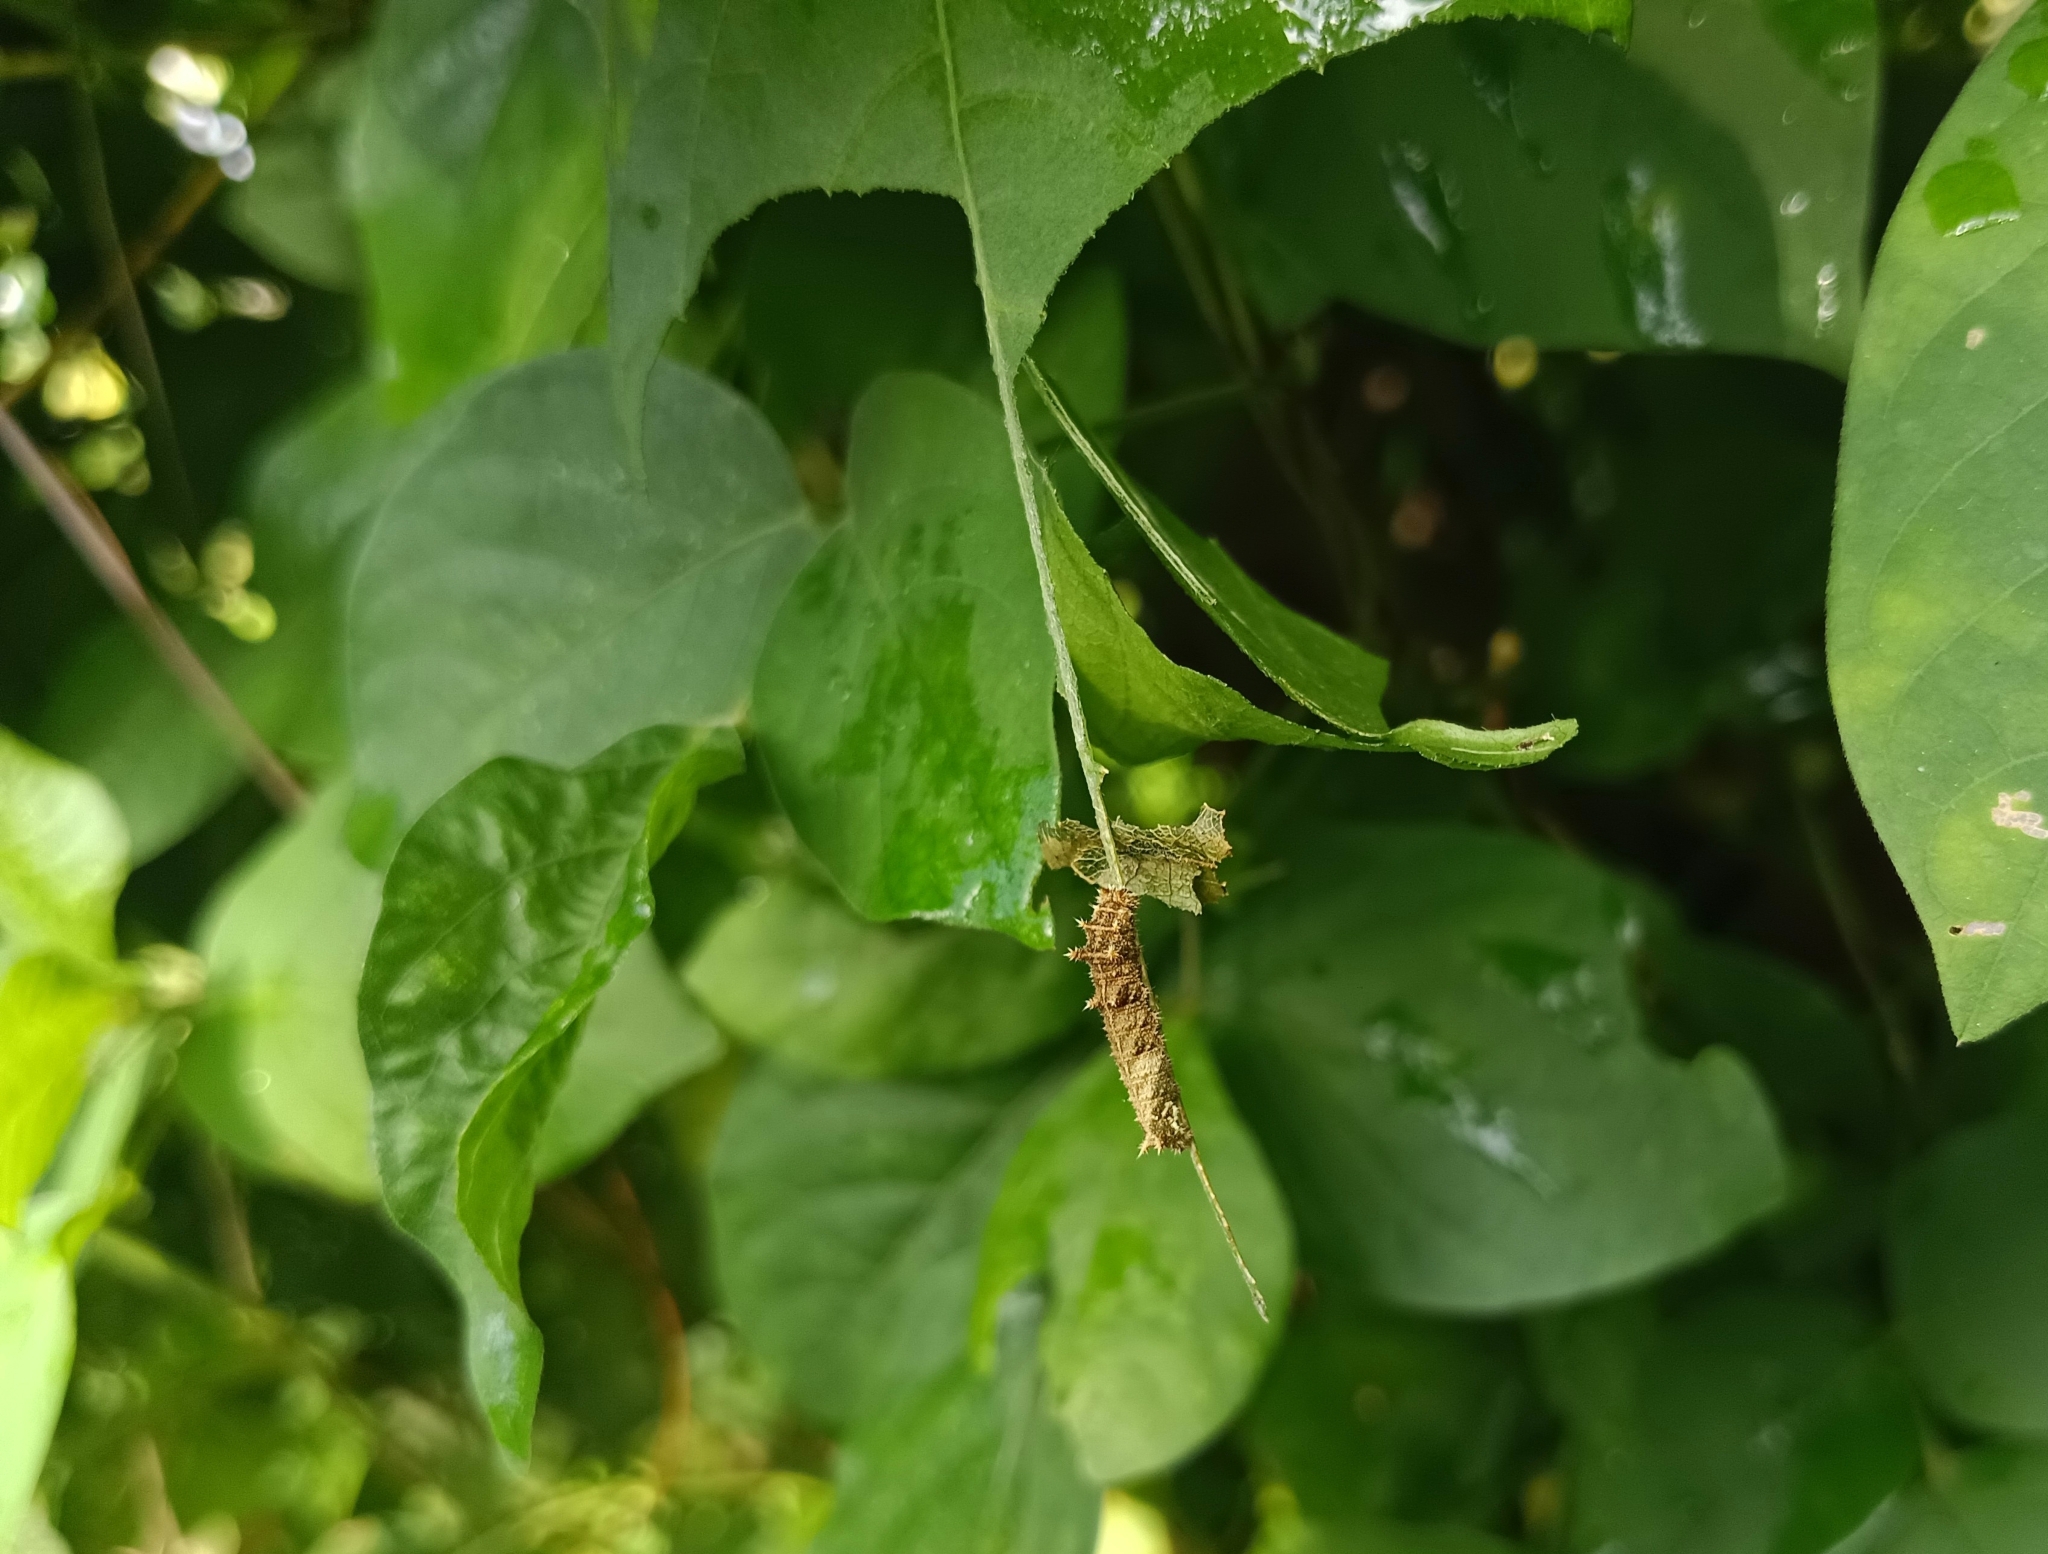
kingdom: Animalia
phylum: Arthropoda
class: Insecta
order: Lepidoptera
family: Nymphalidae
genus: Neptis
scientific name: Neptis hylas
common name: Common sailer
